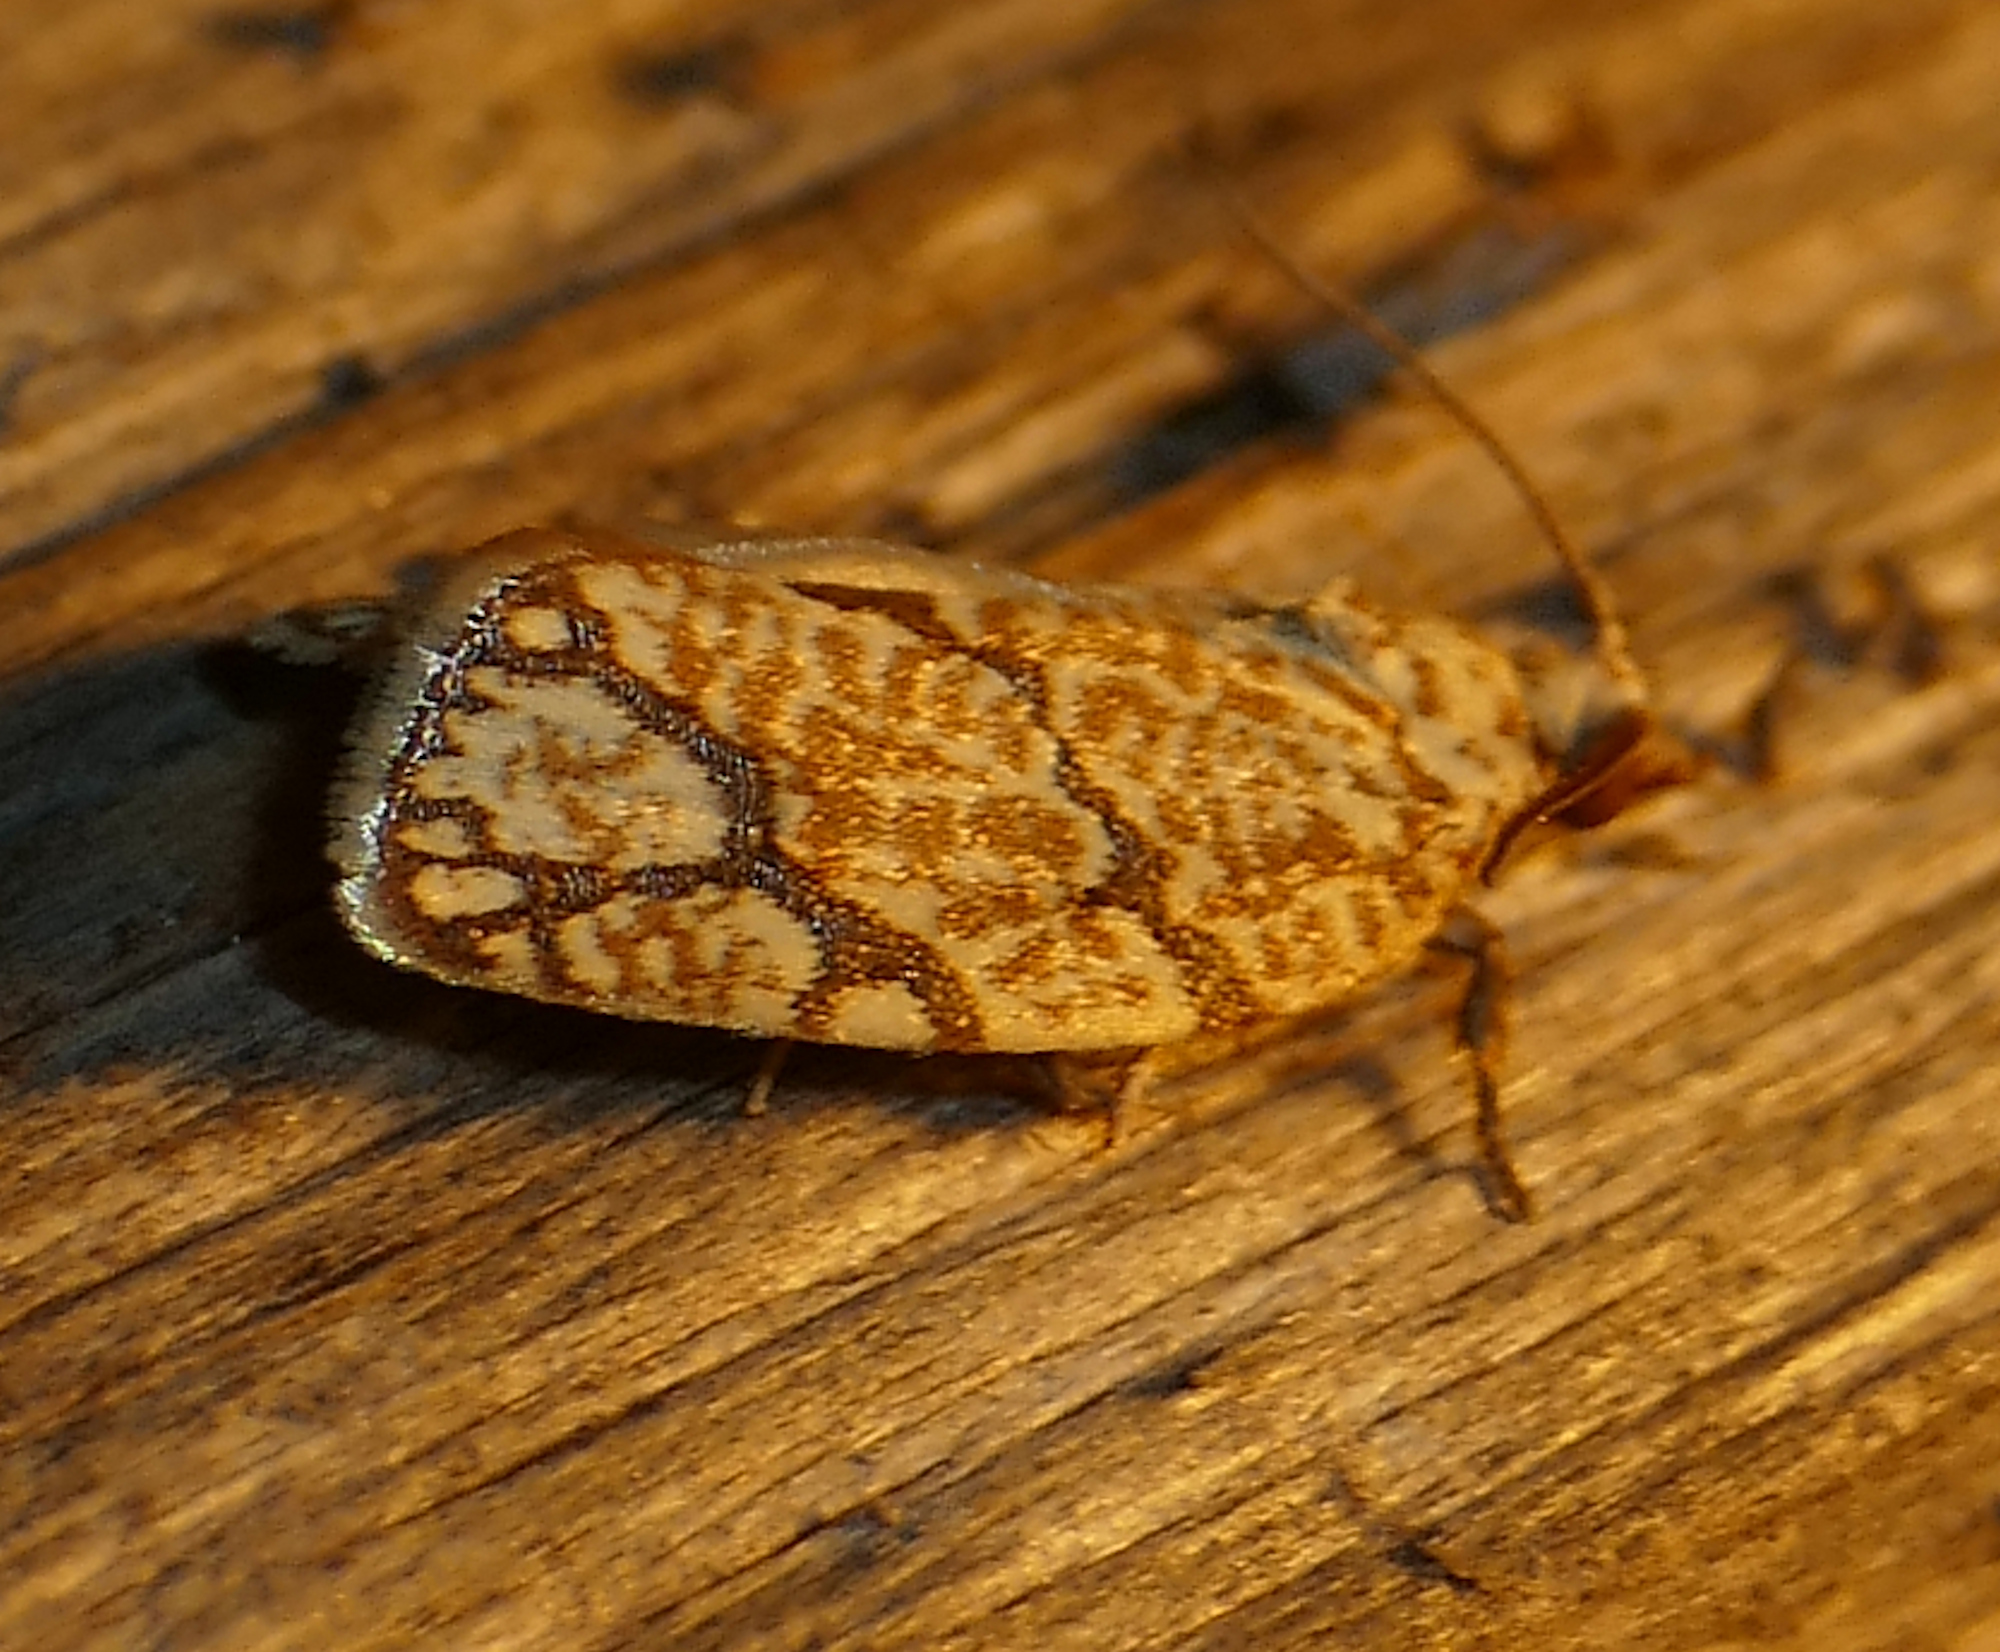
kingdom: Animalia
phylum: Arthropoda
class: Insecta
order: Lepidoptera
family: Tortricidae
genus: Argyrotaenia
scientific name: Argyrotaenia quercifoliana
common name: Yellow-winged oak leafroller moth
